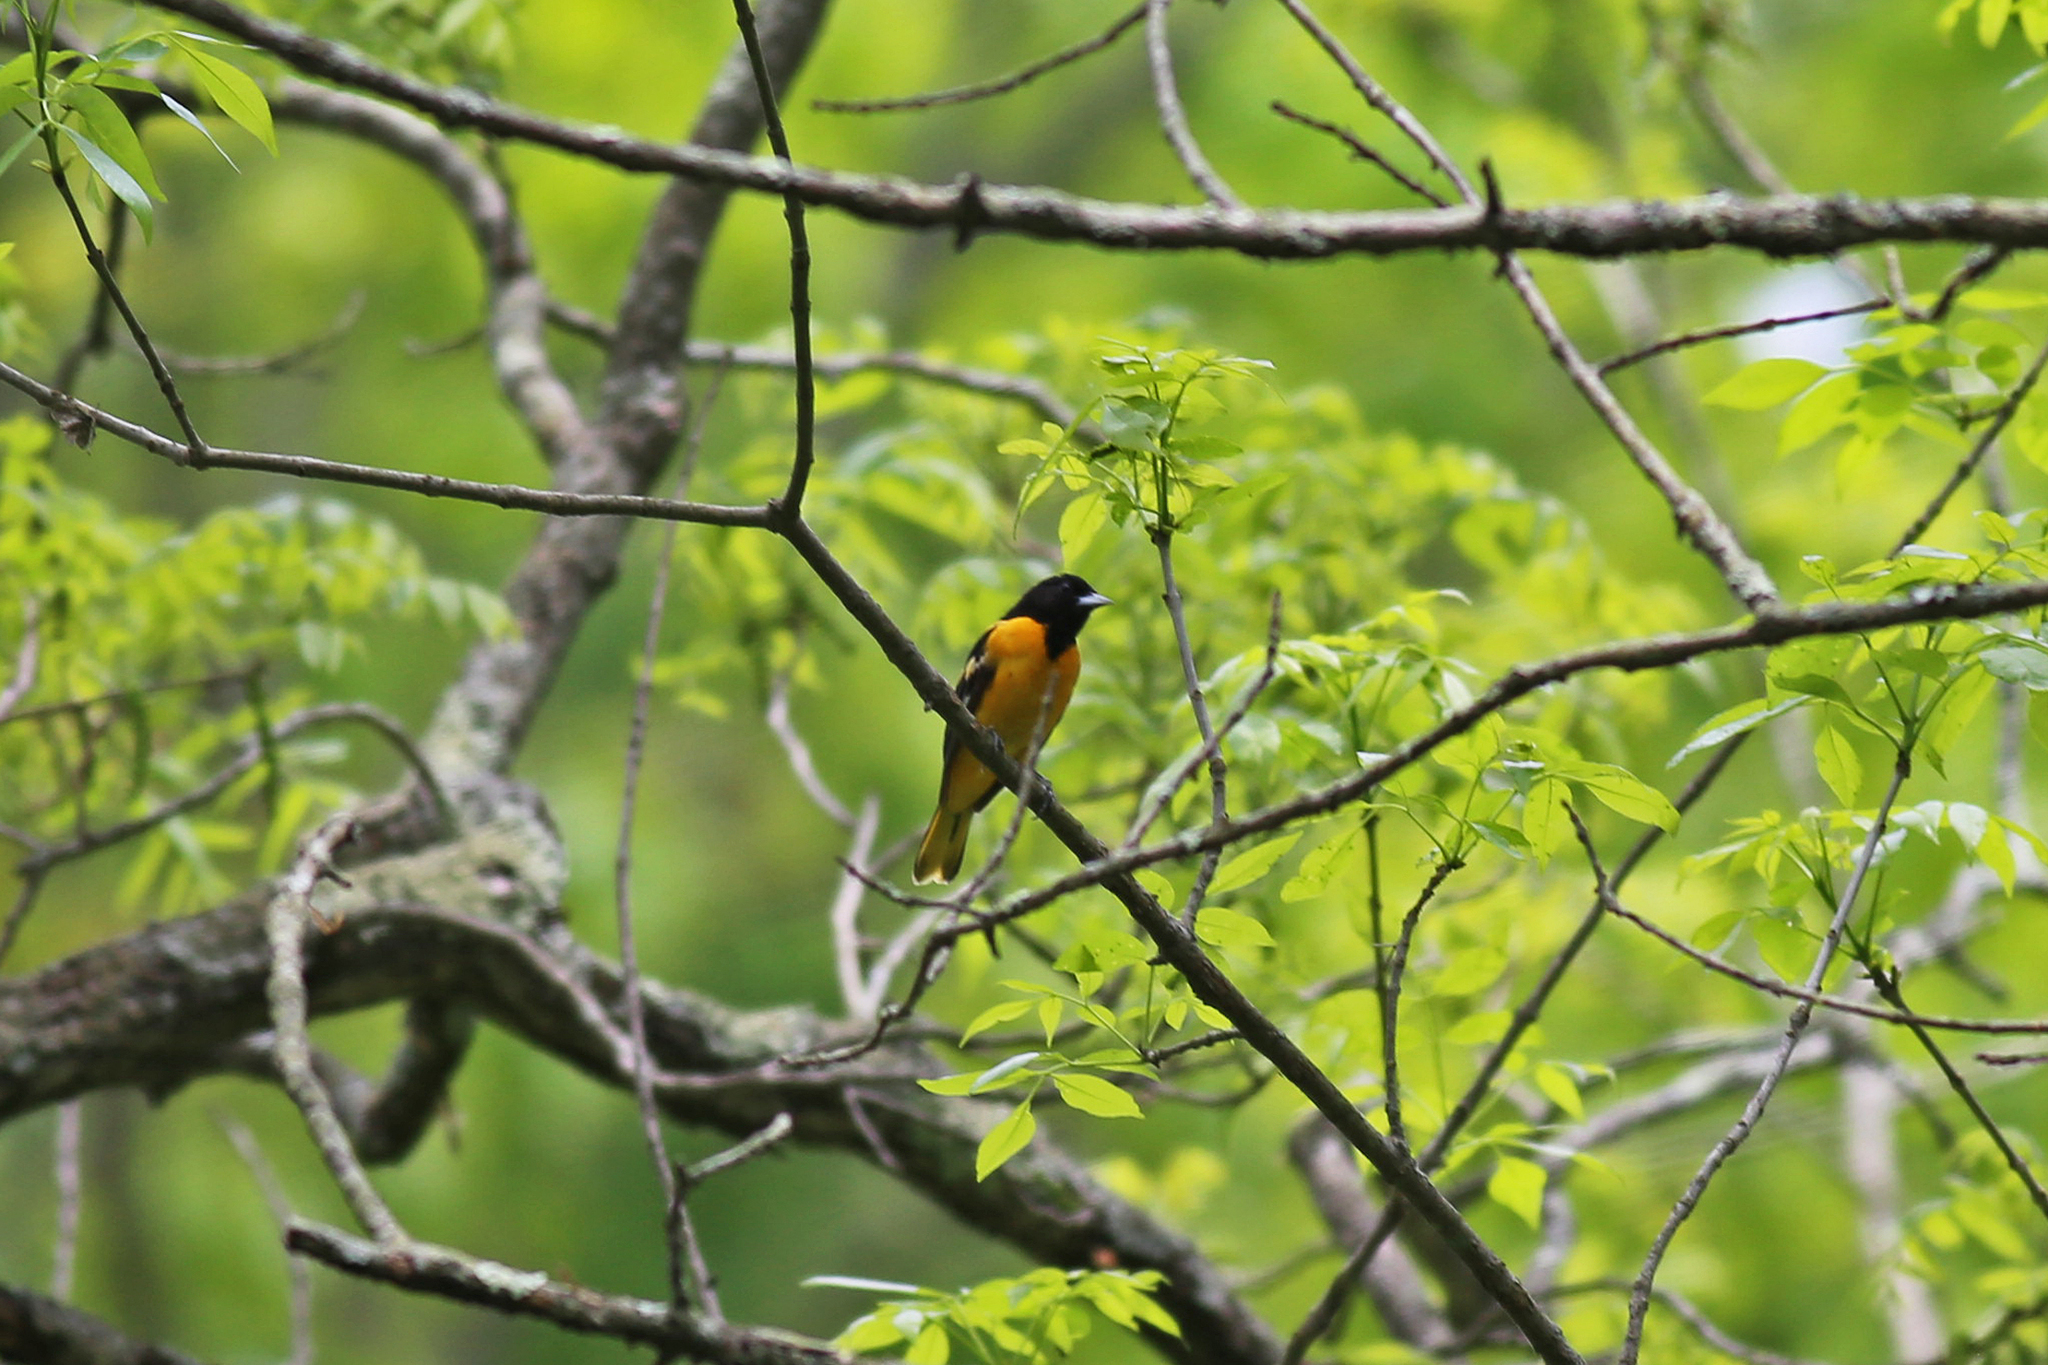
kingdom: Animalia
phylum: Chordata
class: Aves
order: Passeriformes
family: Icteridae
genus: Icterus
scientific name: Icterus galbula
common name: Baltimore oriole
